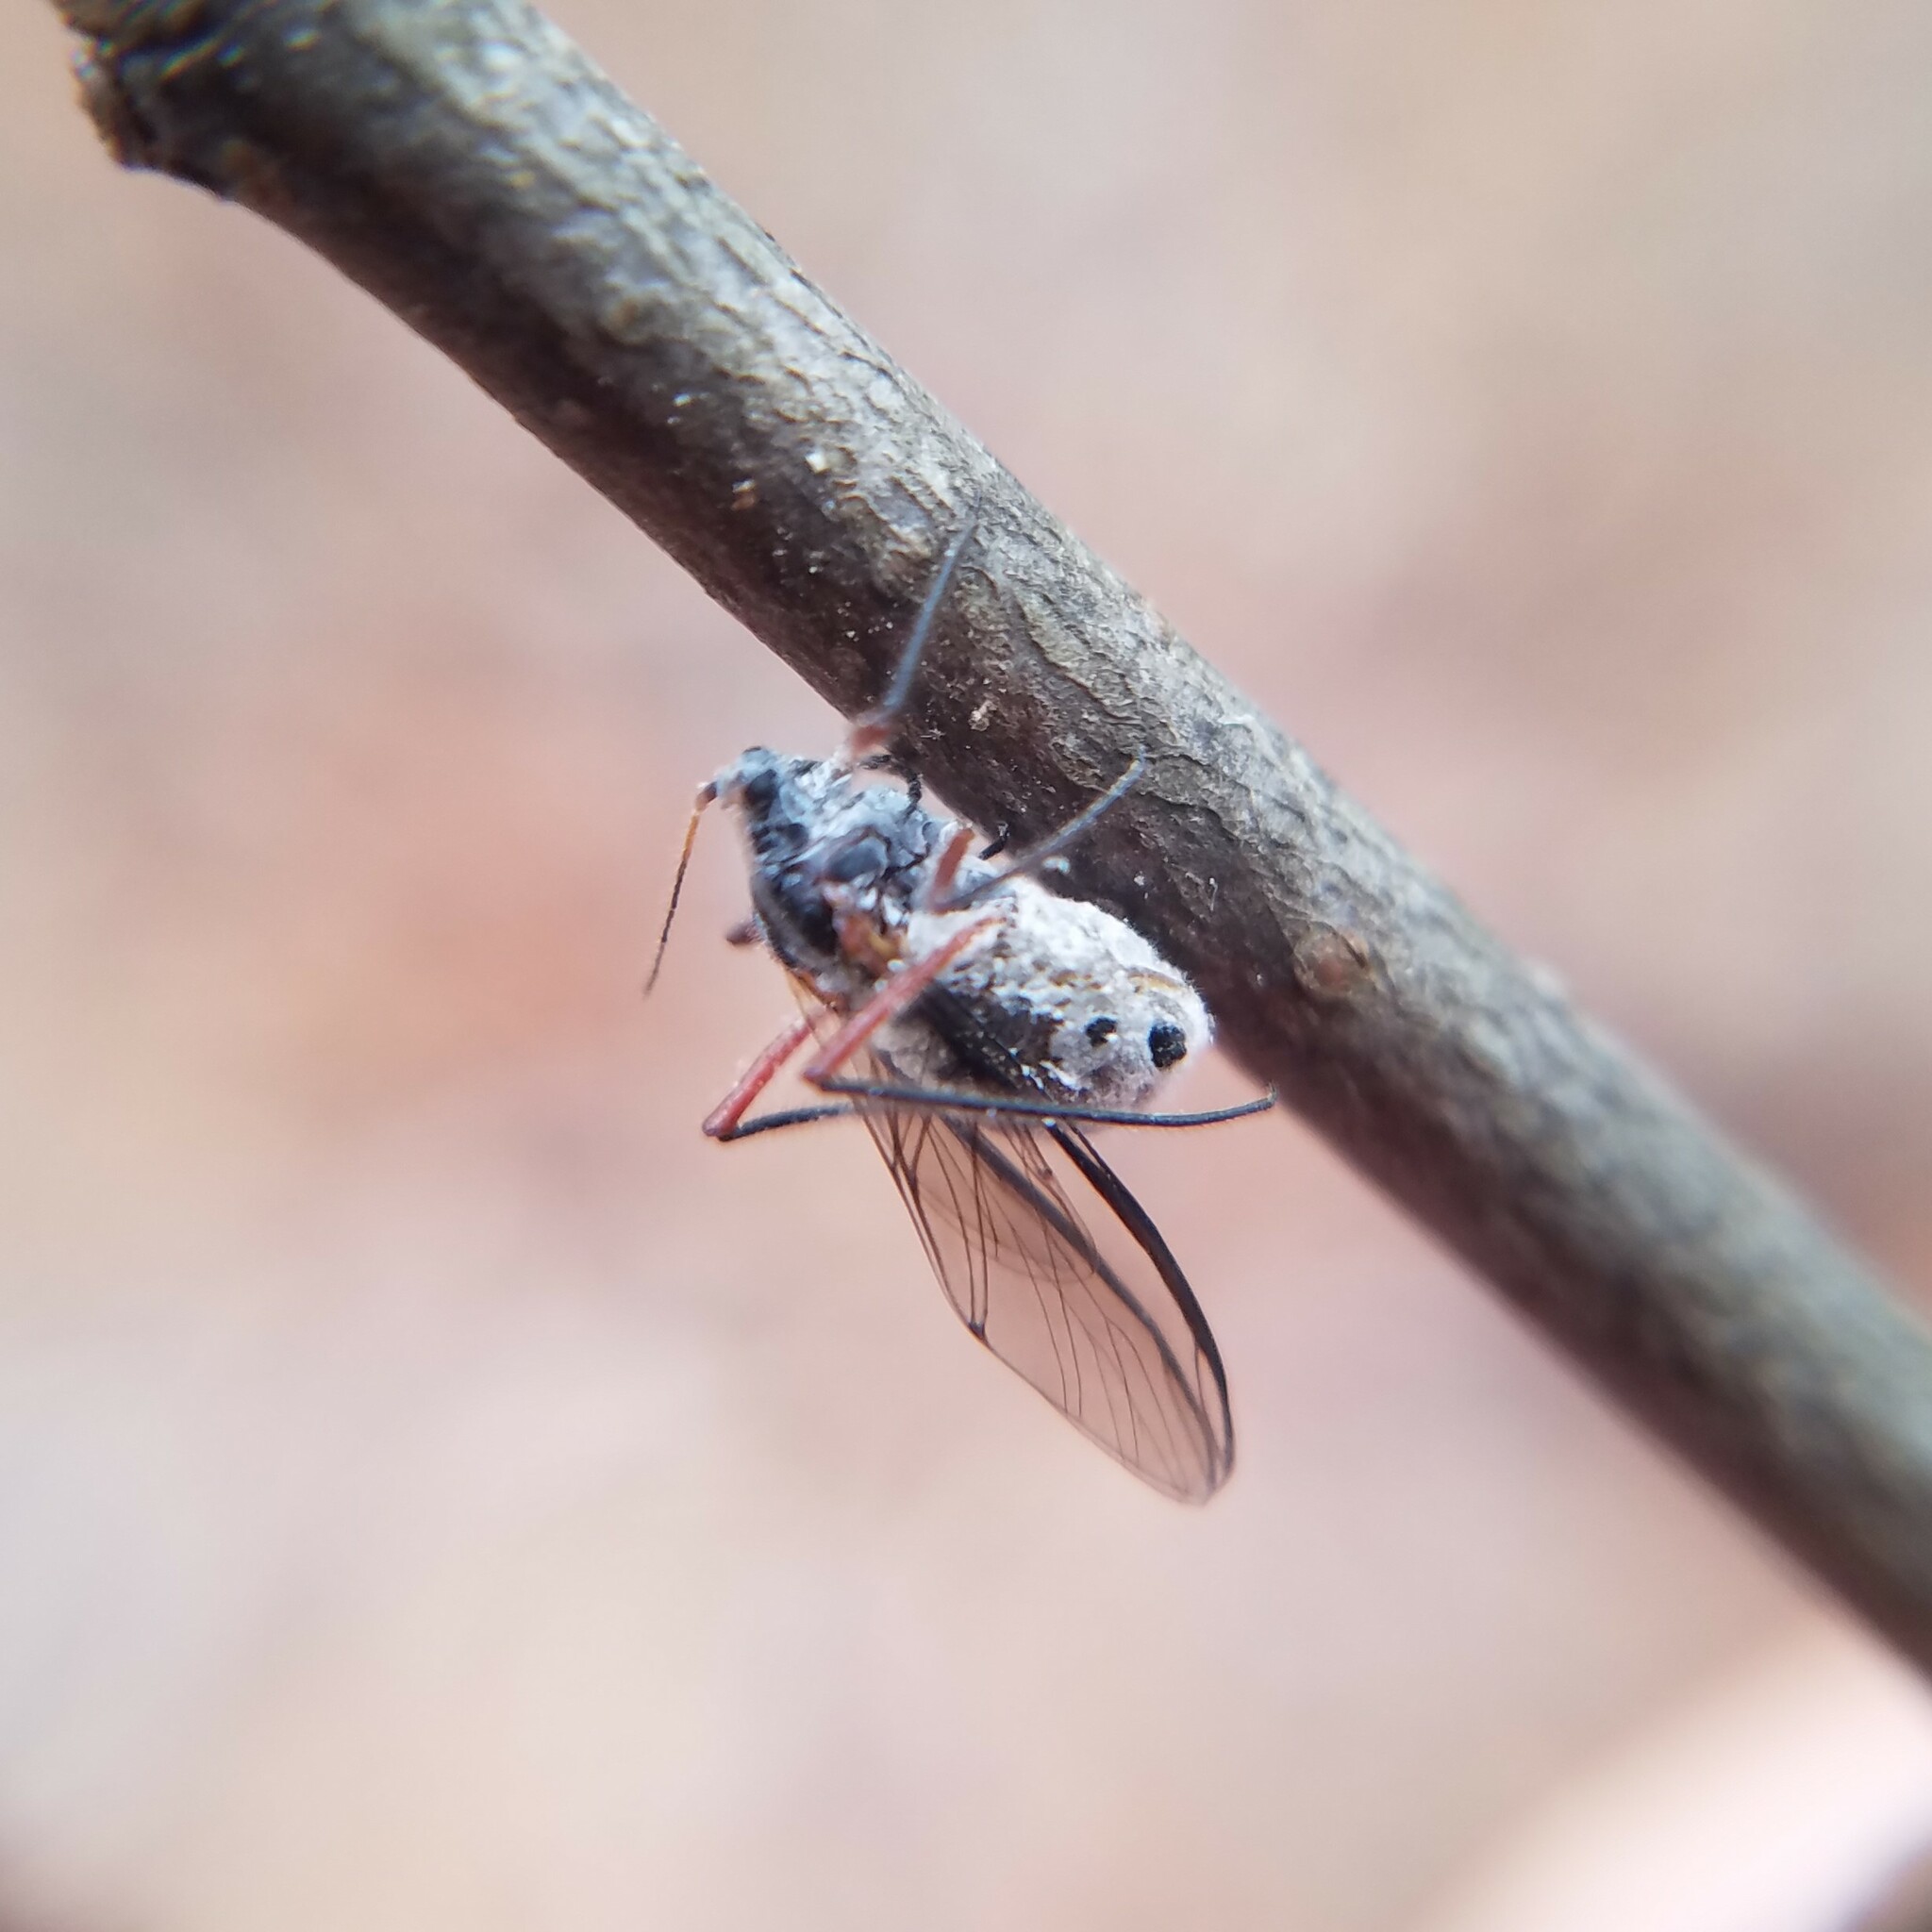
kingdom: Animalia
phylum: Arthropoda
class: Insecta
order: Hemiptera
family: Aphididae
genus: Longistigma
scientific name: Longistigma caryae
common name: Giant bark aphid
